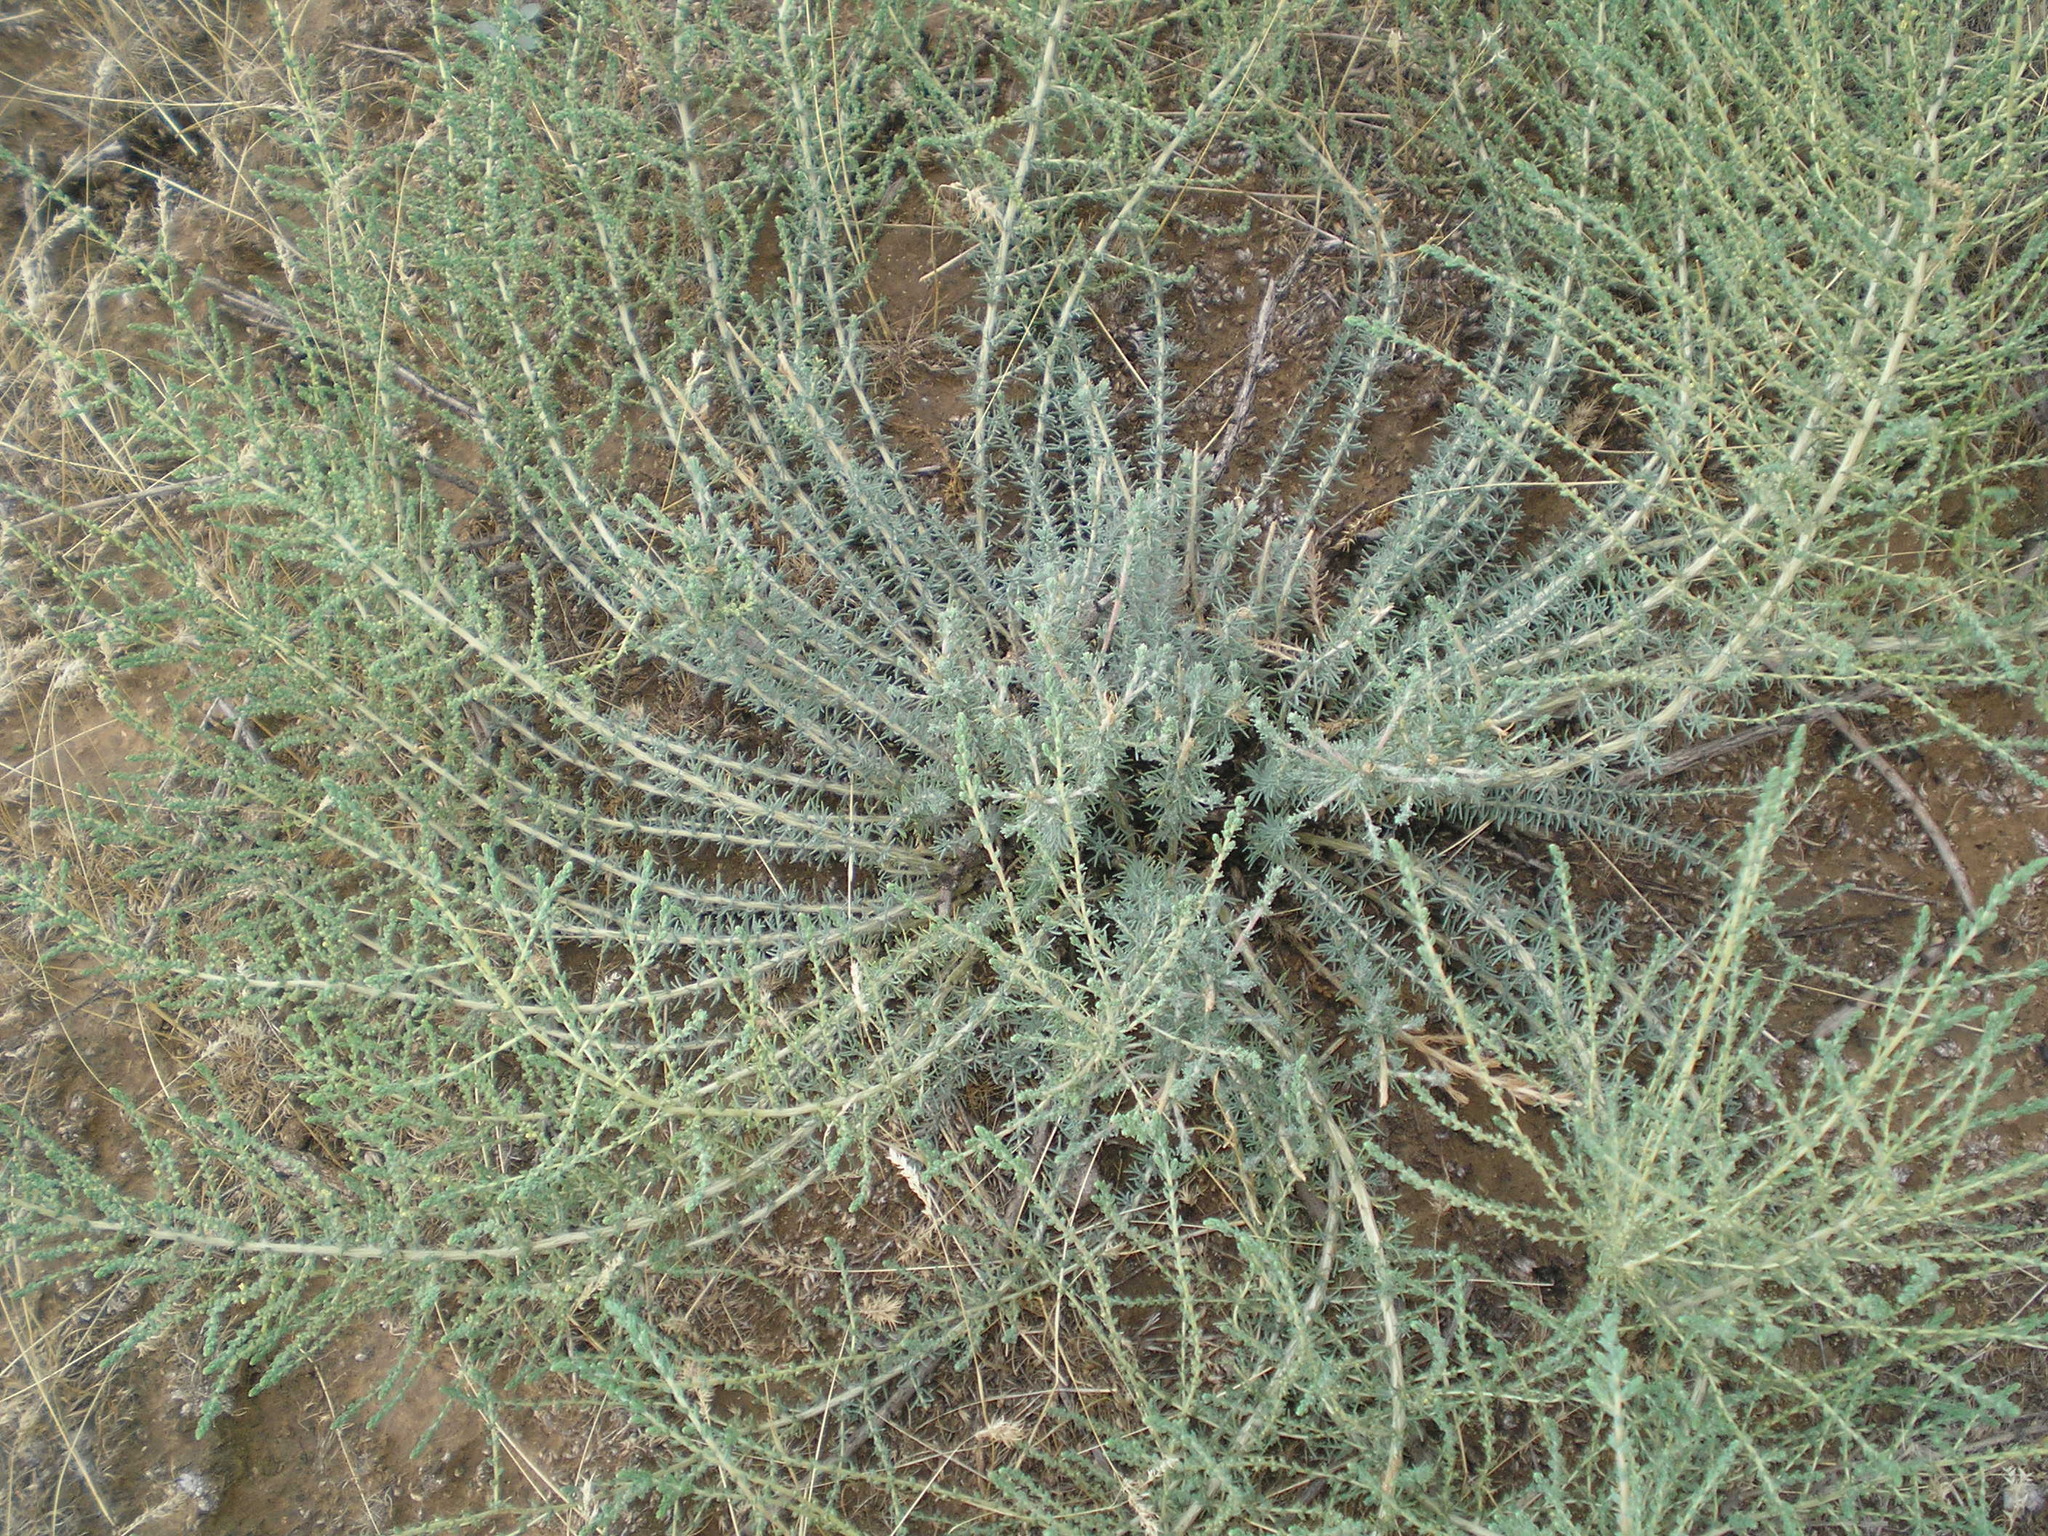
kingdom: Plantae
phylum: Tracheophyta
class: Magnoliopsida
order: Caryophyllales
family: Amaranthaceae
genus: Bassia
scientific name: Bassia prostrata
